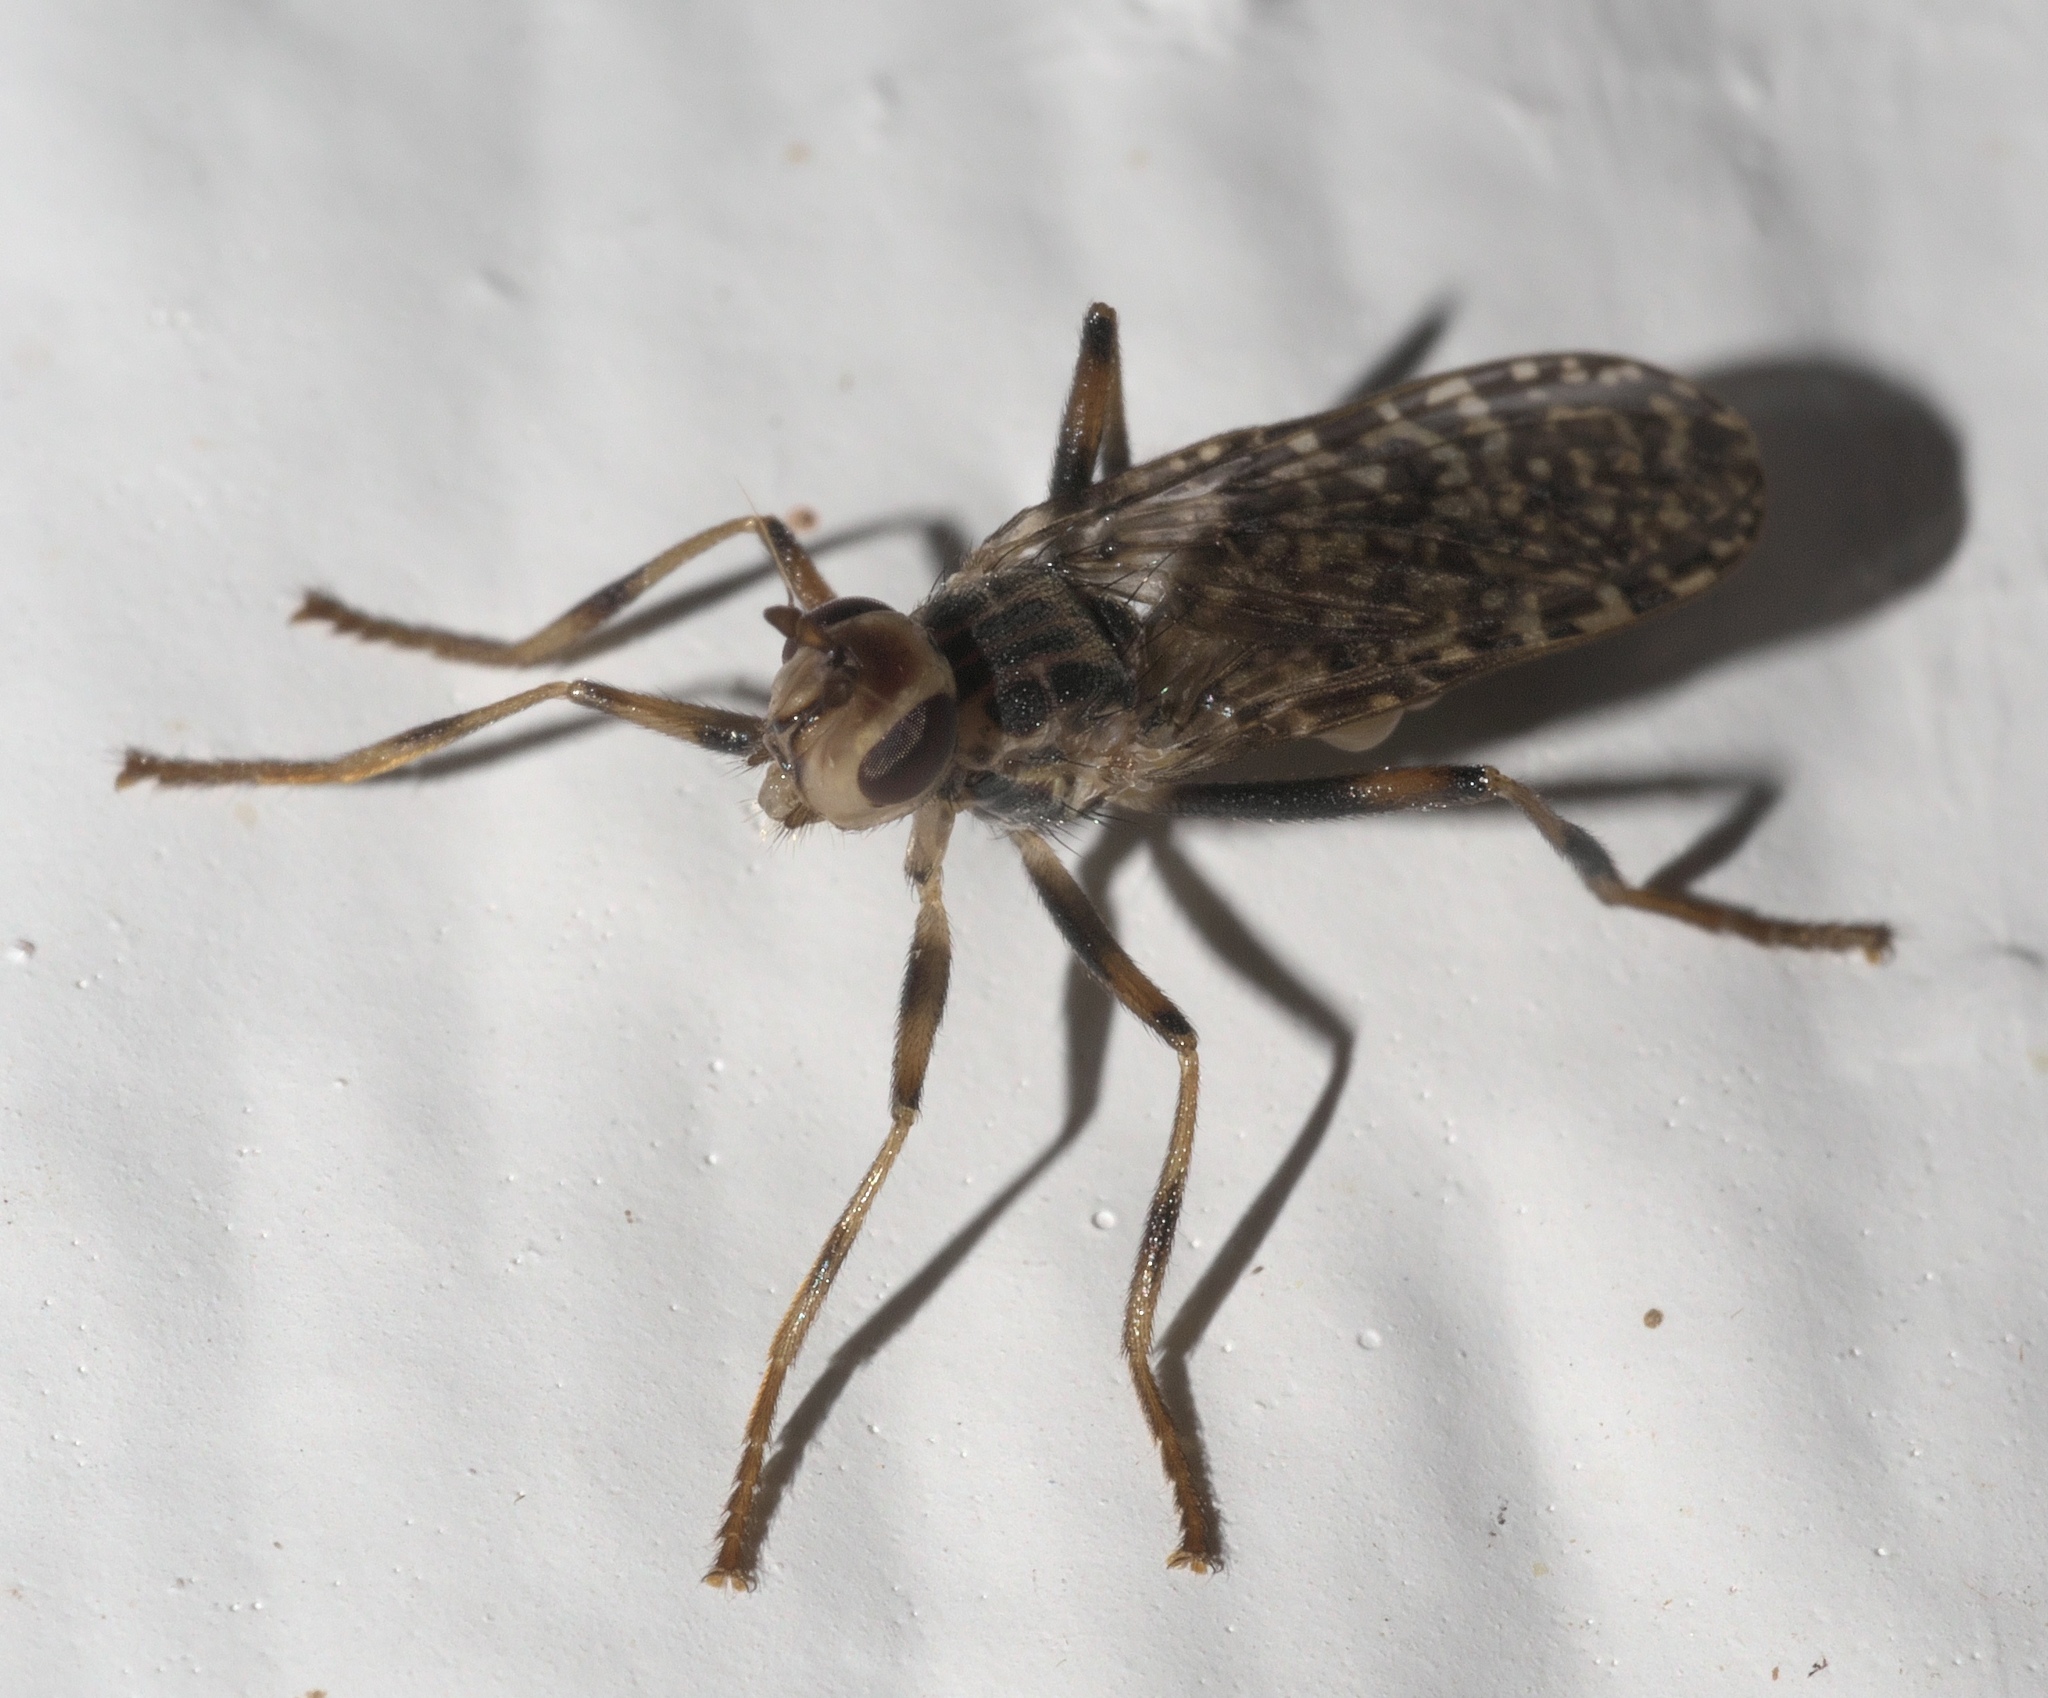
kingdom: Animalia
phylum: Arthropoda
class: Insecta
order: Diptera
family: Pyrgotidae
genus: Boreothrinax
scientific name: Boreothrinax
